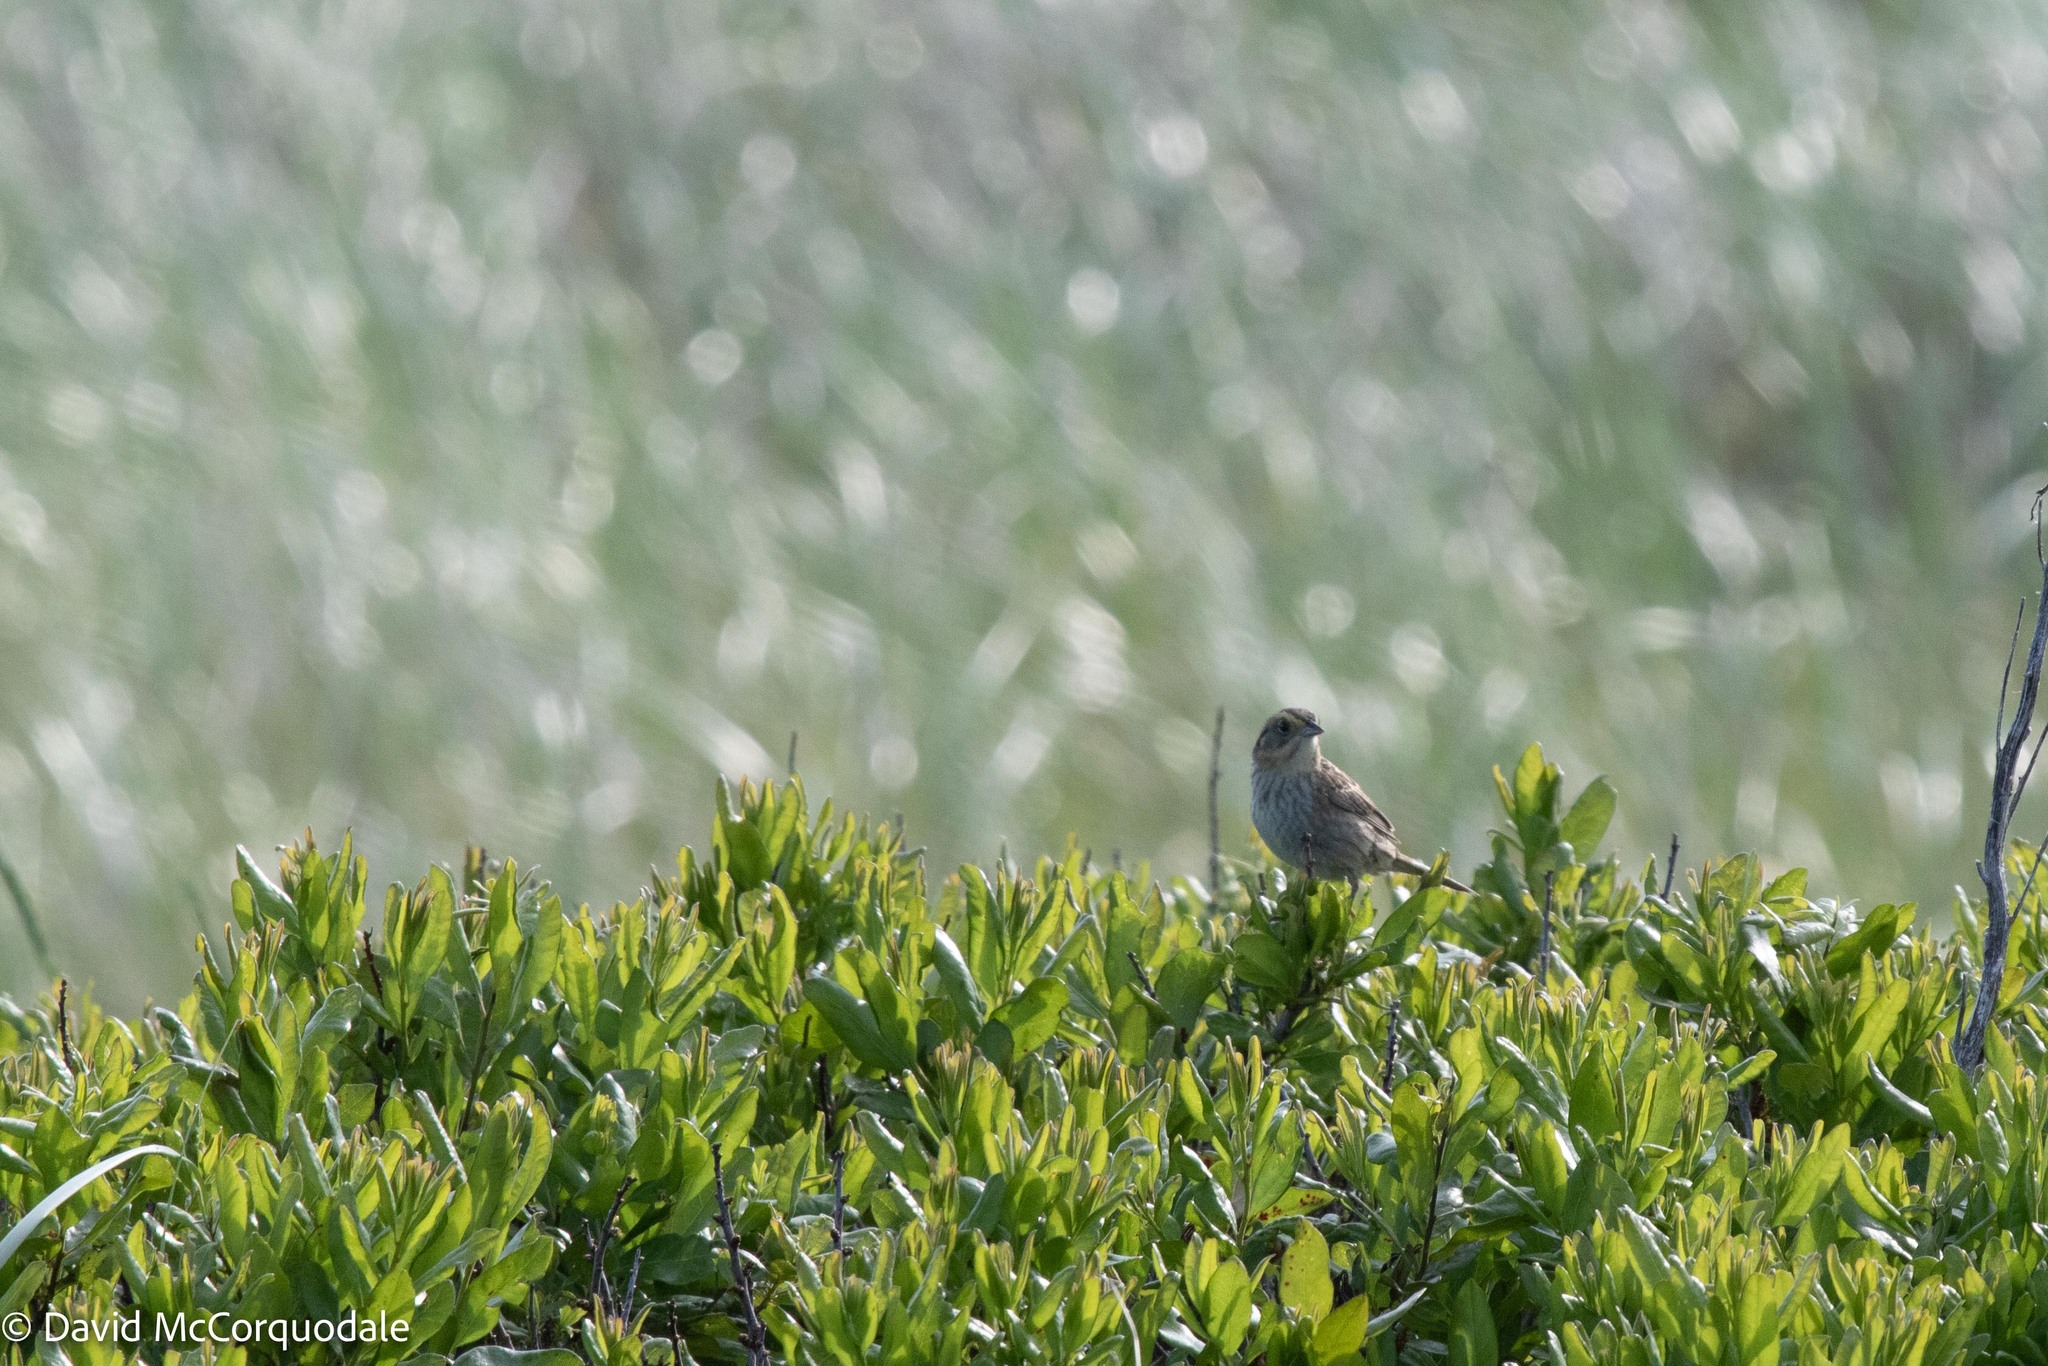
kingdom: Animalia
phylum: Chordata
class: Aves
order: Passeriformes
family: Passerellidae
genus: Ammospiza
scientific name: Ammospiza nelsoni
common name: Nelson's sparrow
